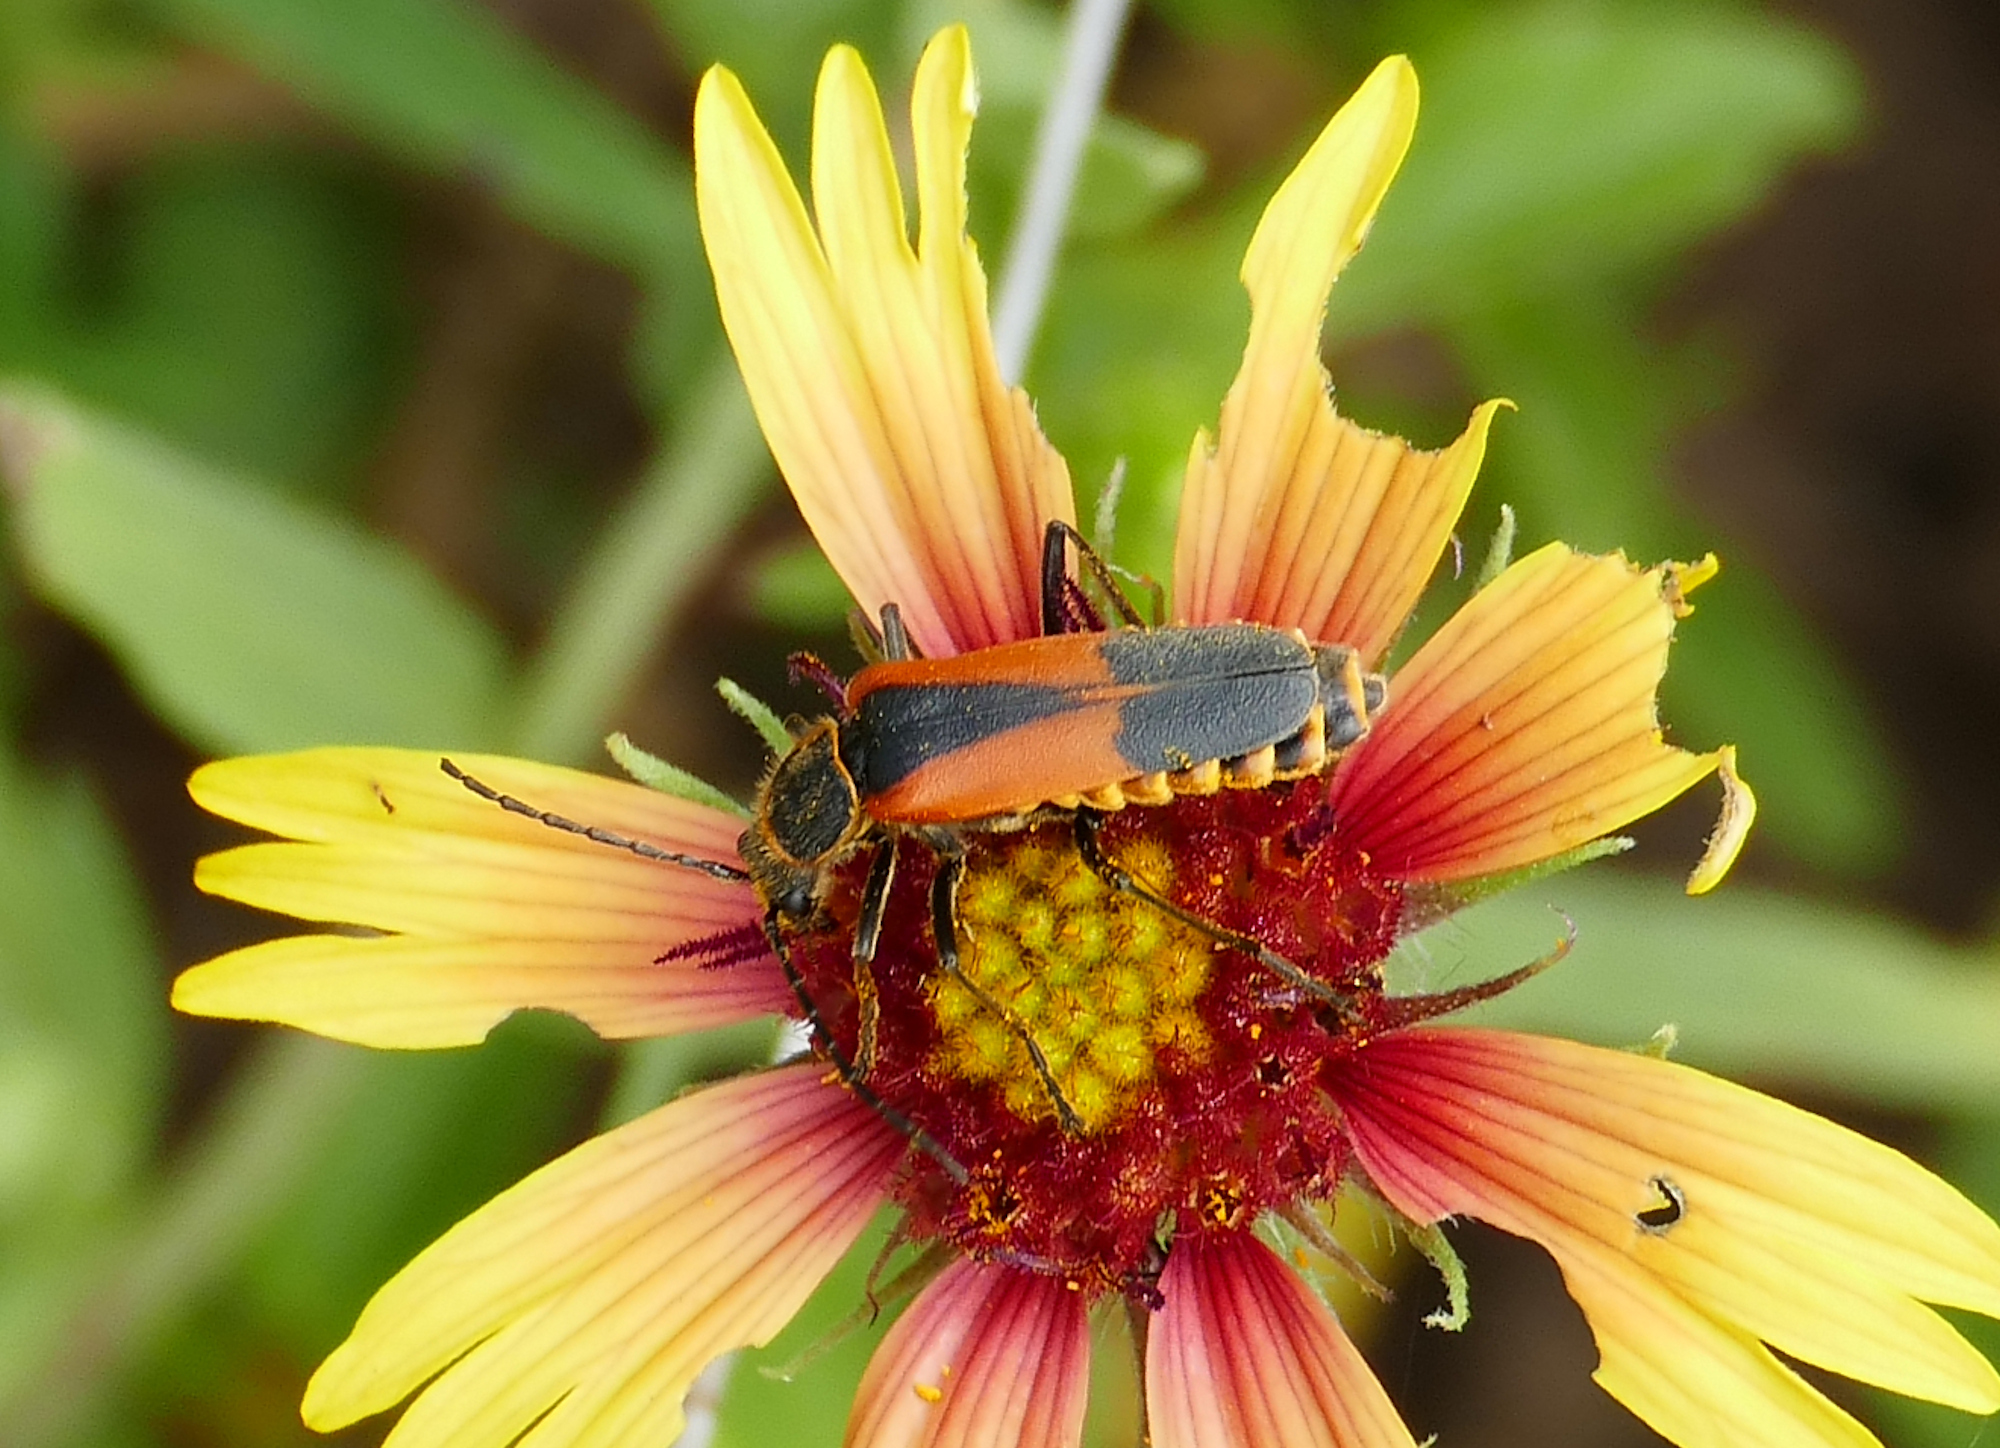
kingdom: Animalia
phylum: Arthropoda
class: Insecta
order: Coleoptera
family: Cantharidae
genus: Chauliognathus
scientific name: Chauliognathus limbicollis
